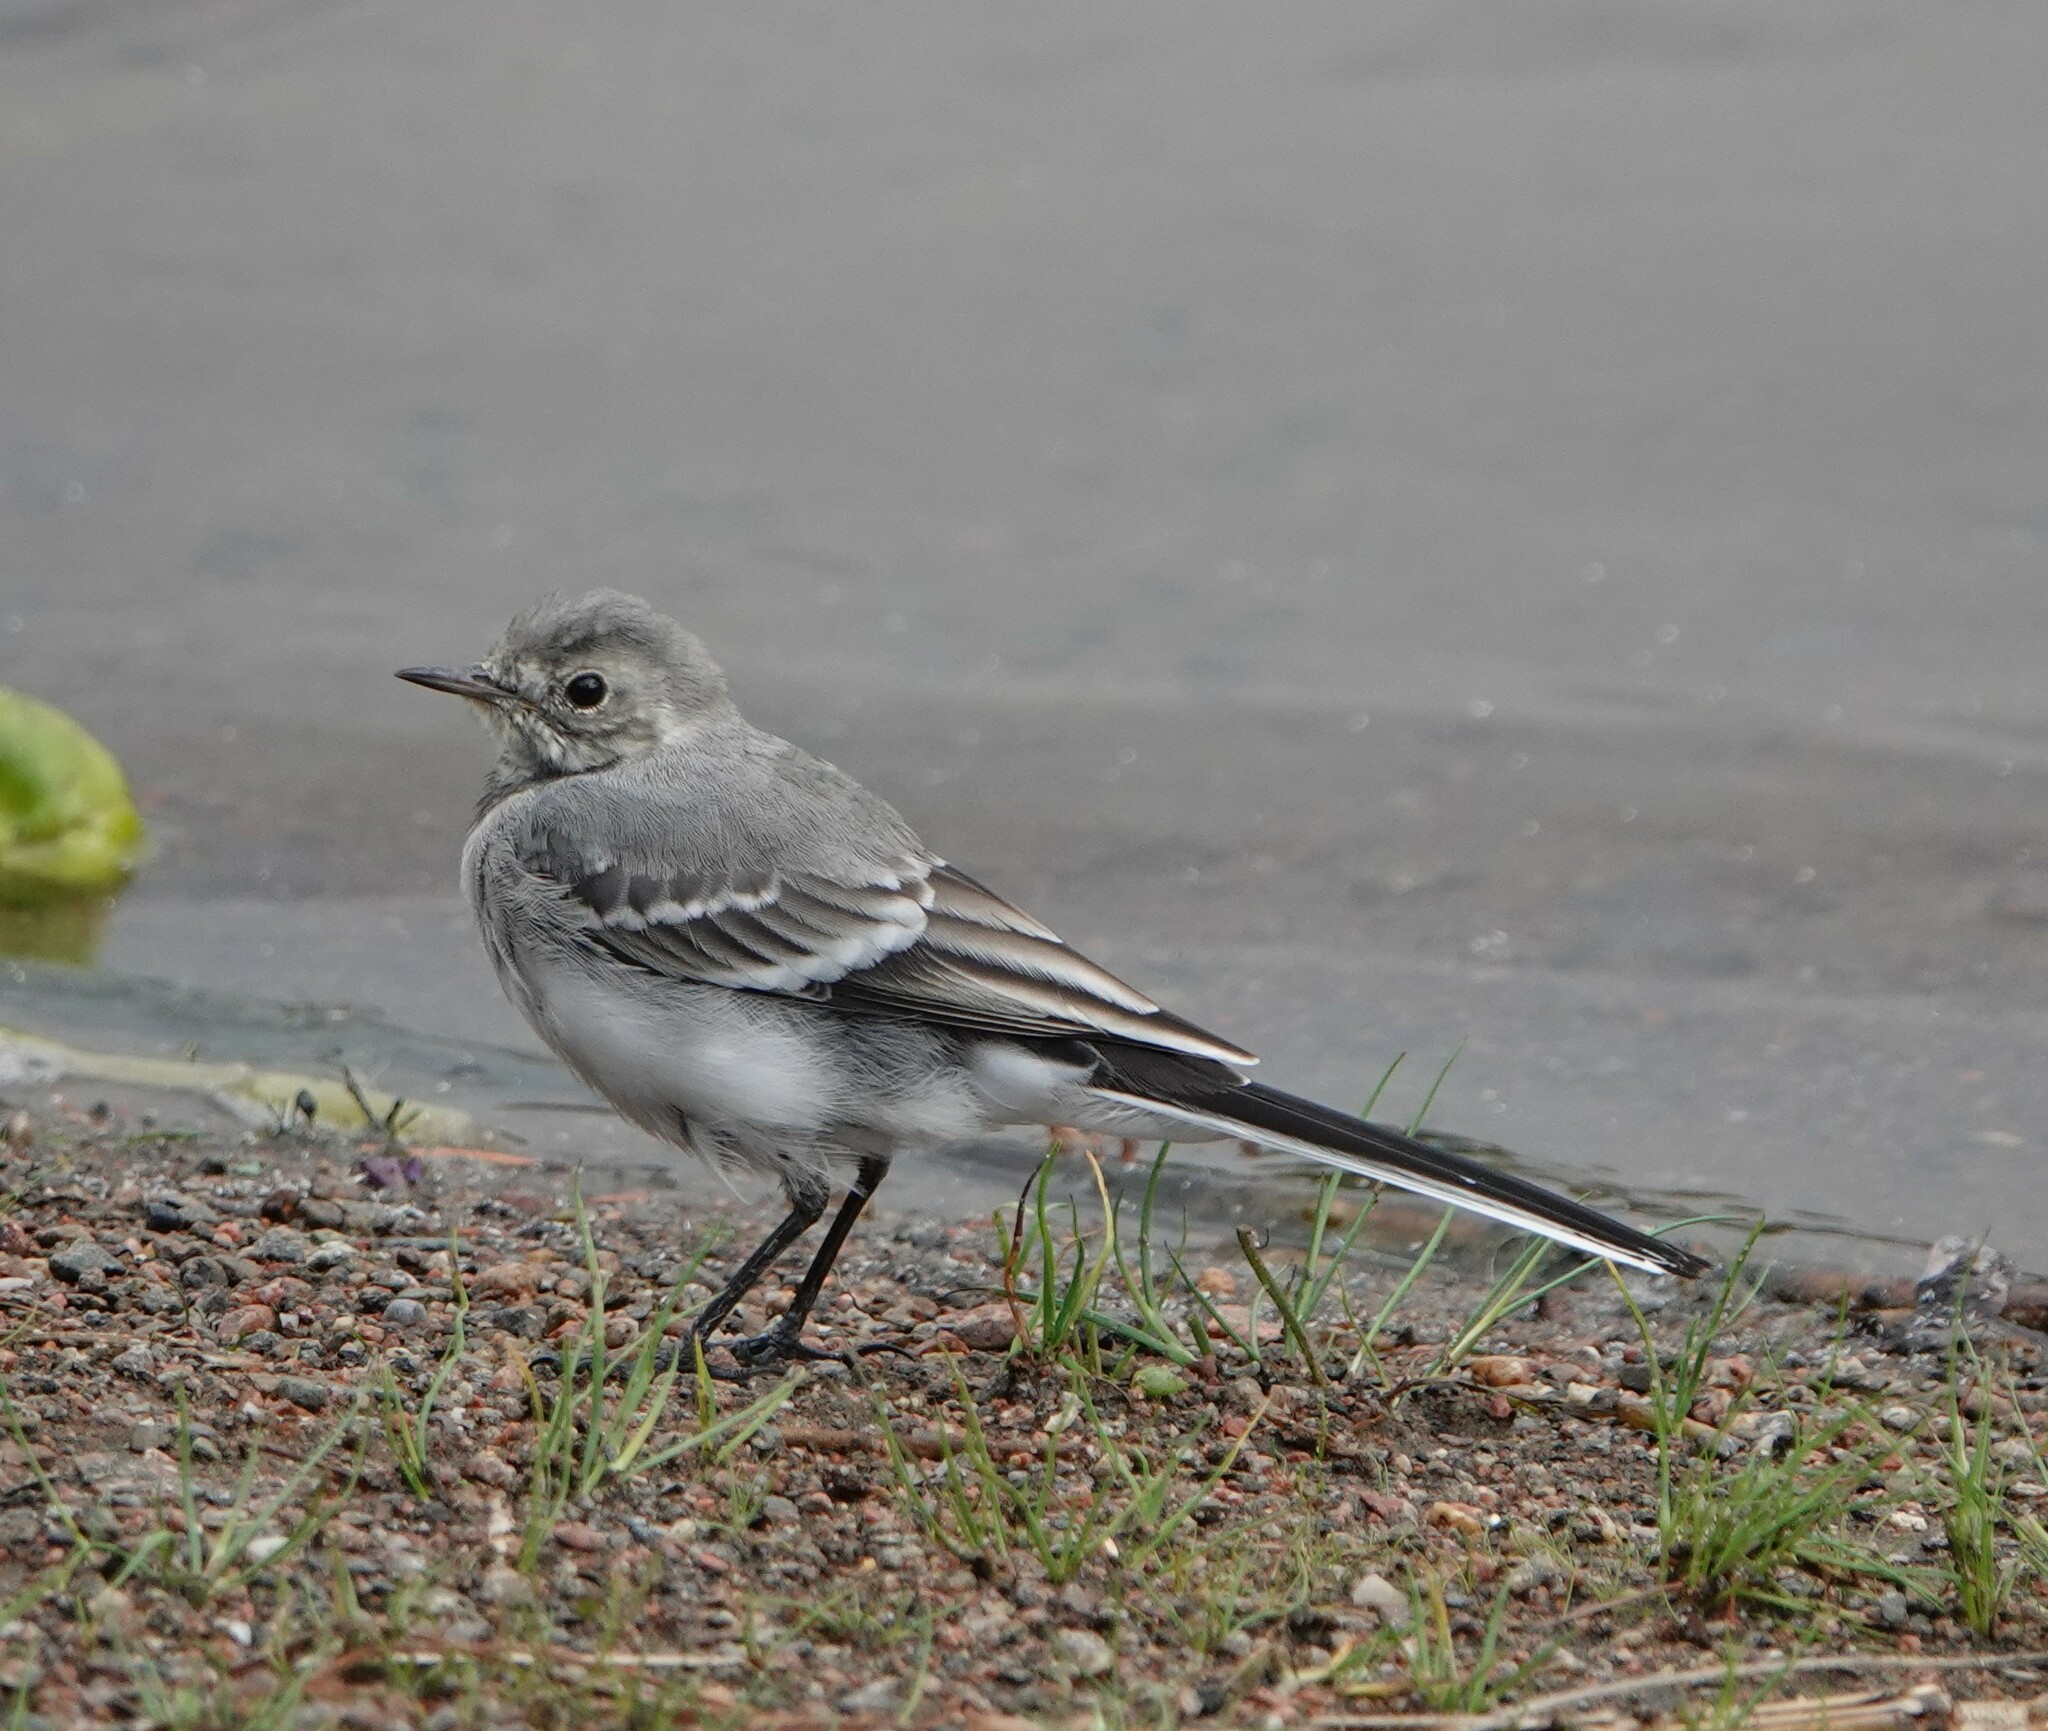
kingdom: Animalia
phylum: Chordata
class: Aves
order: Passeriformes
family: Motacillidae
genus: Motacilla
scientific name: Motacilla alba
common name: White wagtail
